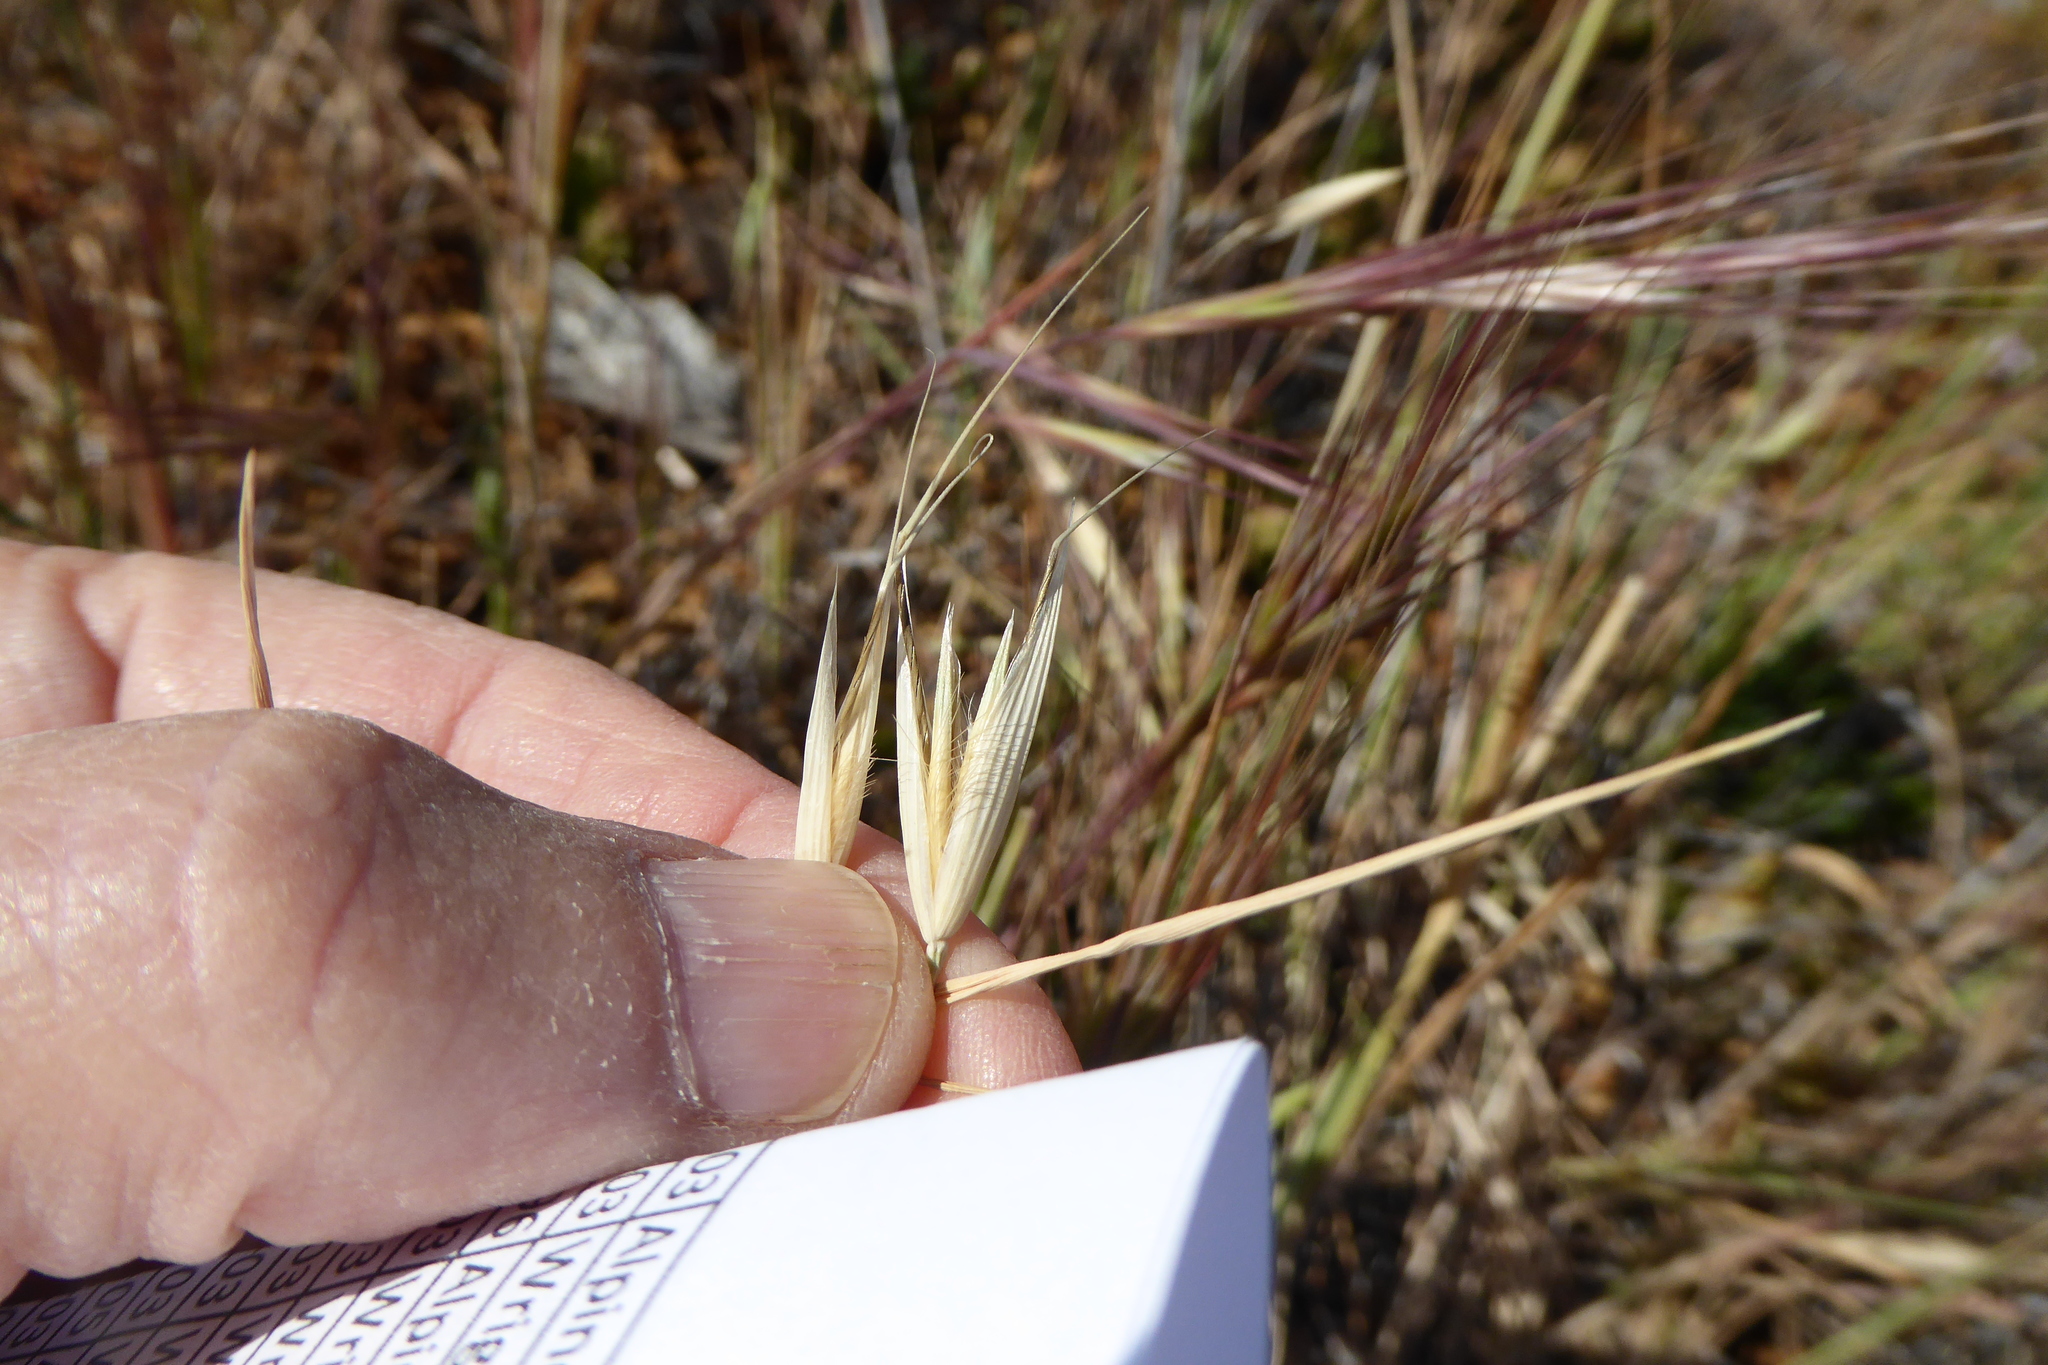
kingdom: Plantae
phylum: Tracheophyta
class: Liliopsida
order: Poales
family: Poaceae
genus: Avena
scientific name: Avena fatua
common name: Wild oat
